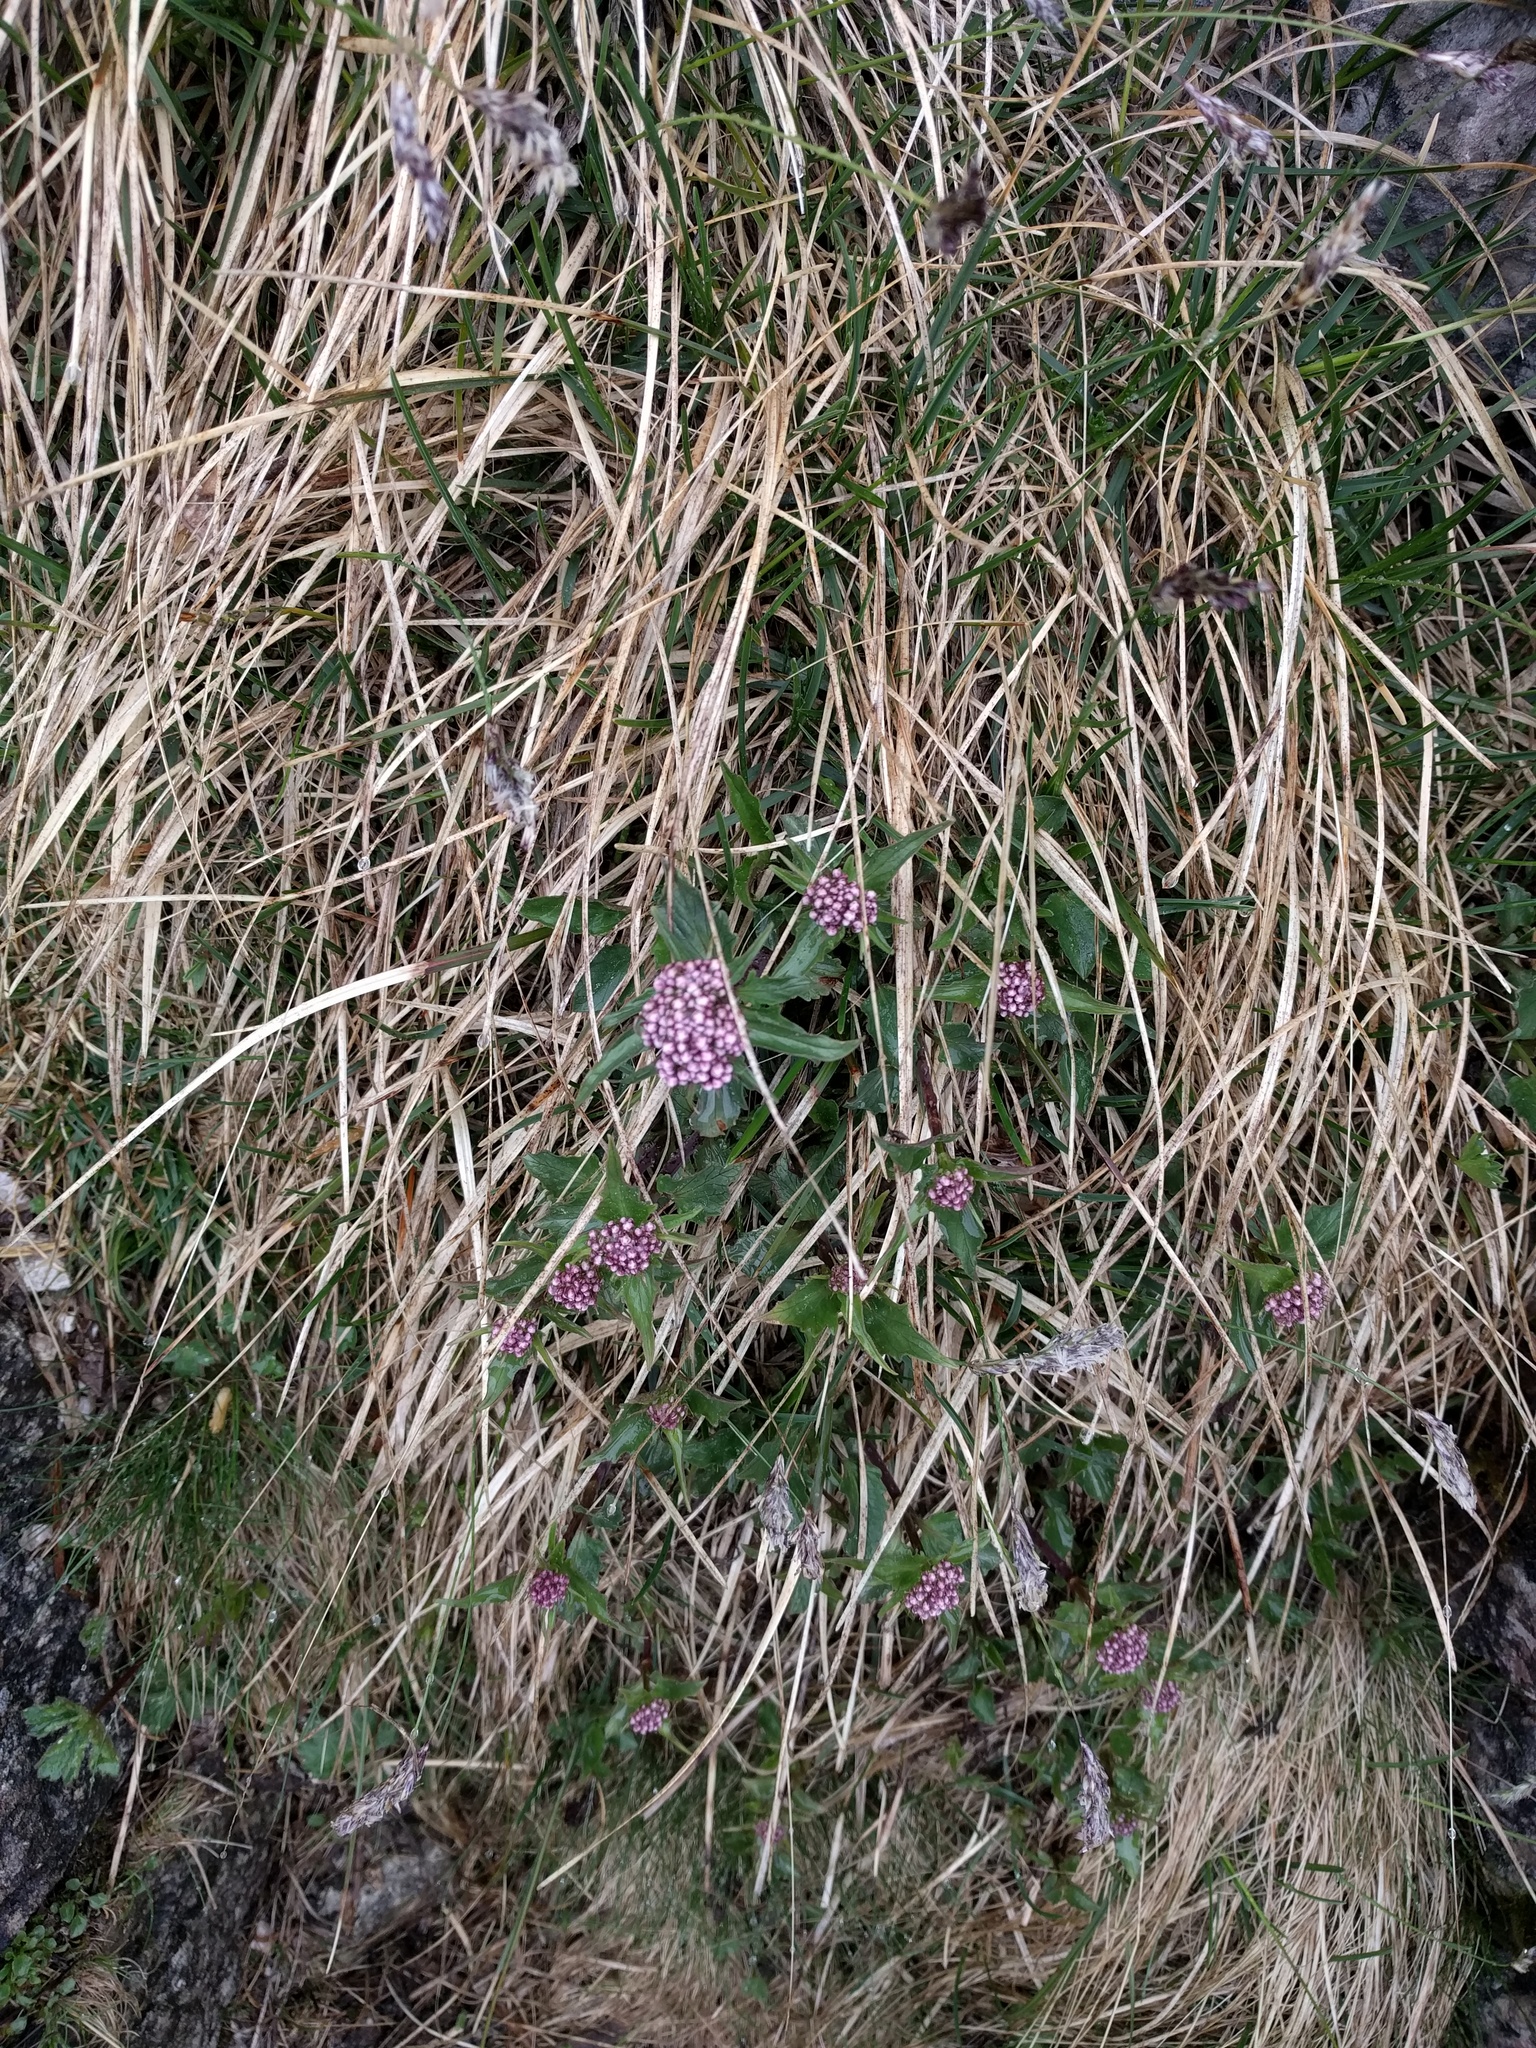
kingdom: Plantae
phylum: Tracheophyta
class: Magnoliopsida
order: Dipsacales
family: Caprifoliaceae
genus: Valeriana
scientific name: Valeriana tripteris
